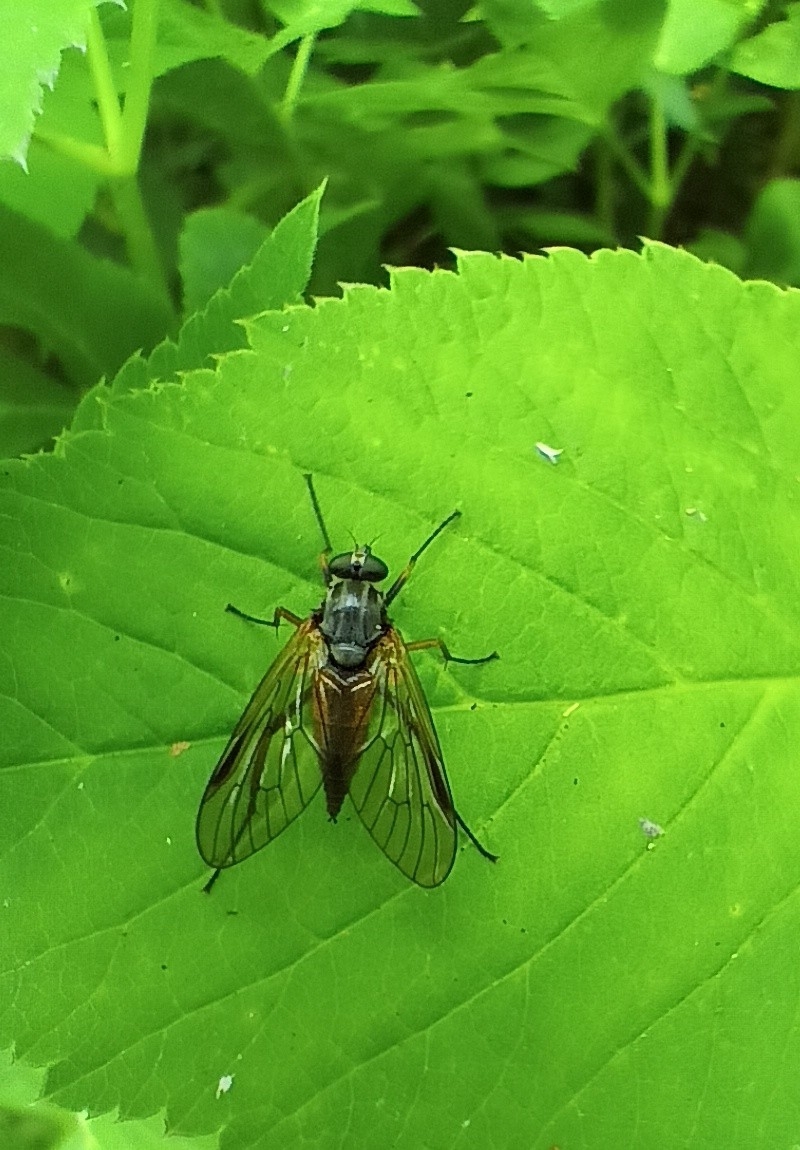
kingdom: Animalia
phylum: Arthropoda
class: Insecta
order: Diptera
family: Rhagionidae
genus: Rhagio
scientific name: Rhagio notatus
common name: Large fleck-winged snipefly
